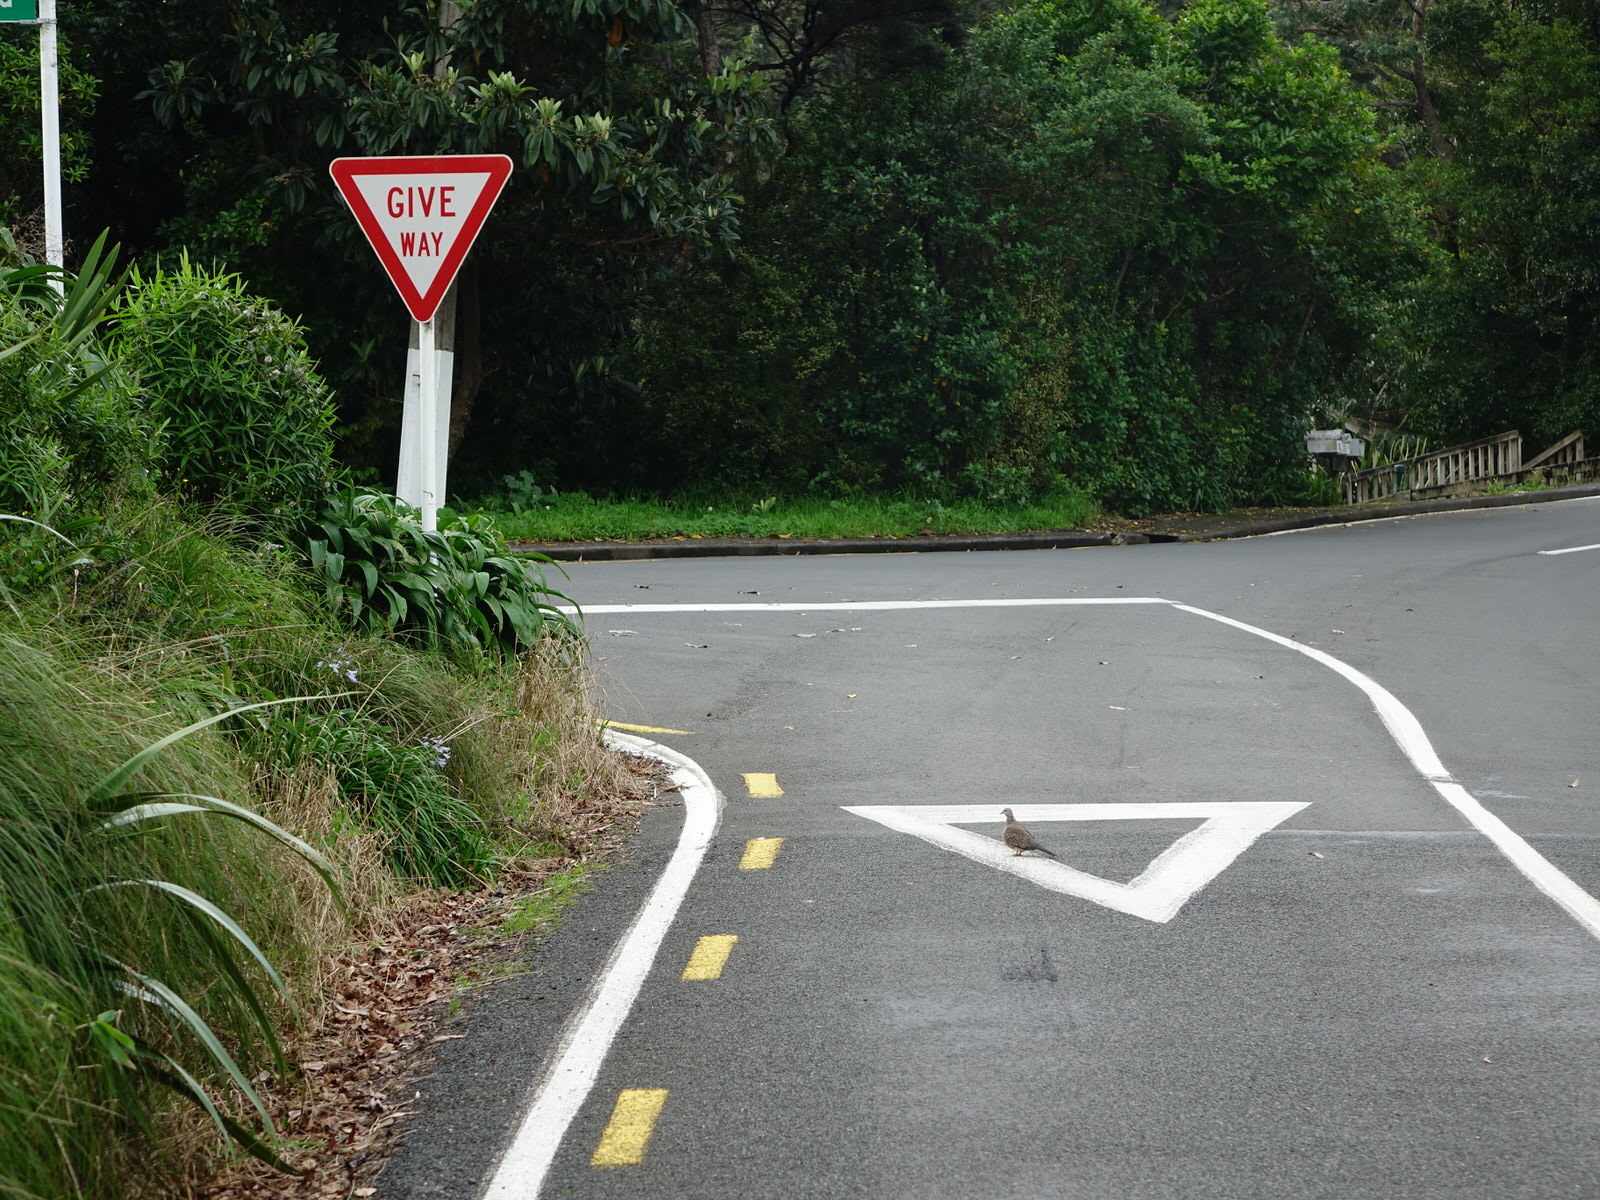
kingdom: Animalia
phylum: Chordata
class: Aves
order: Columbiformes
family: Columbidae
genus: Spilopelia
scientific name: Spilopelia chinensis
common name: Spotted dove
